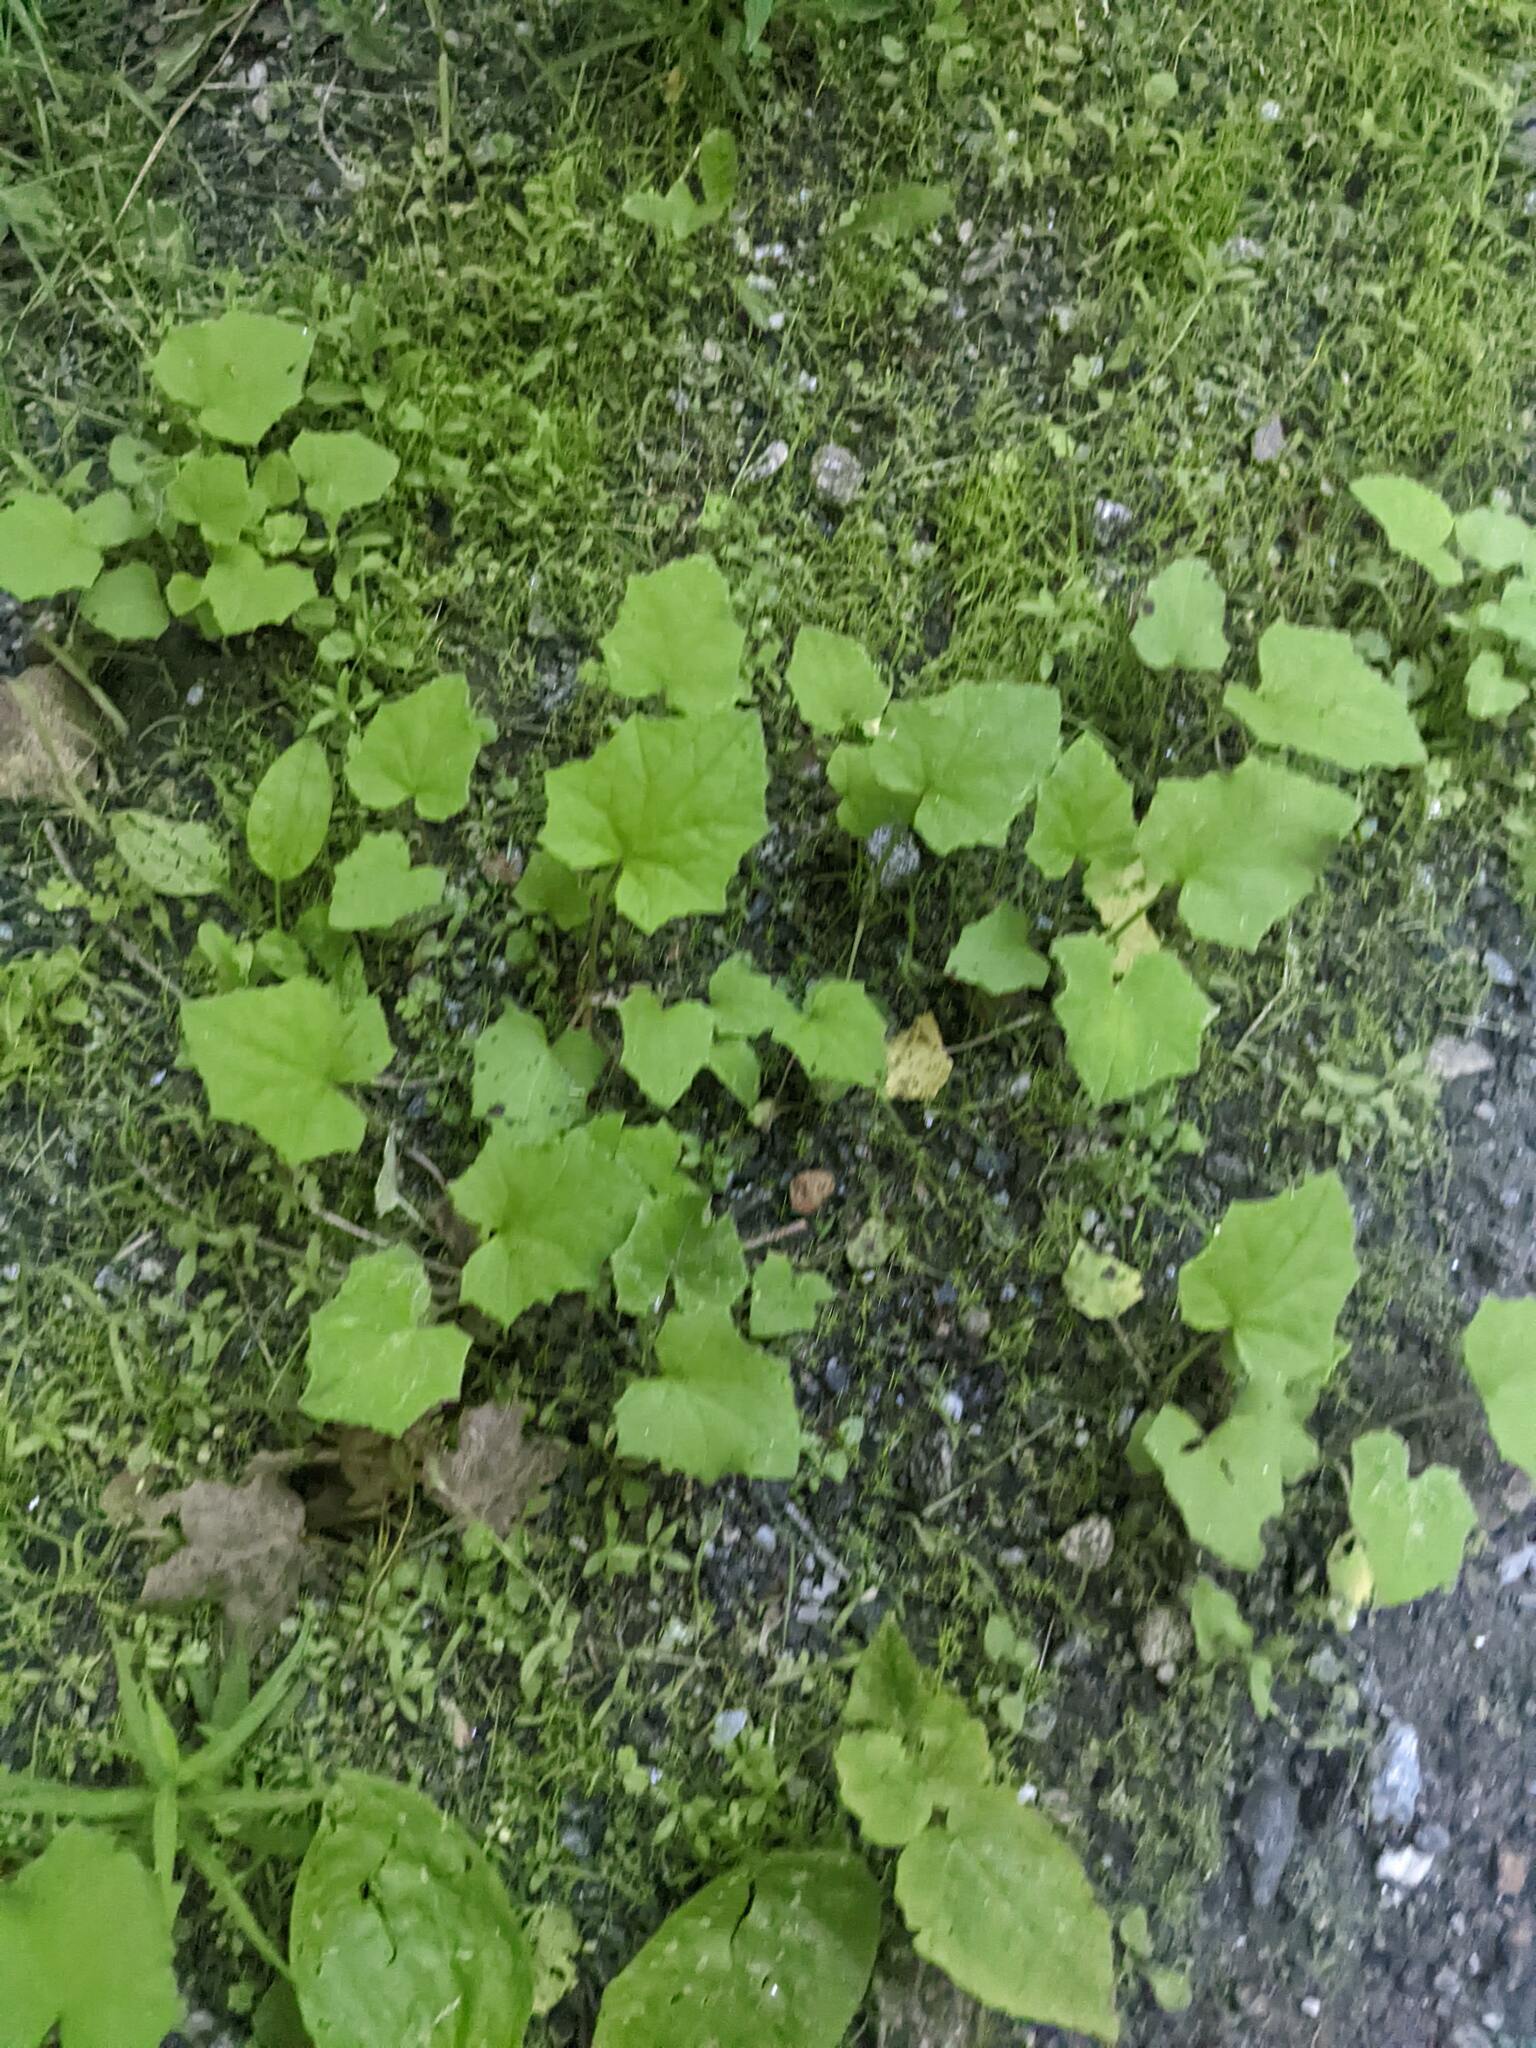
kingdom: Plantae
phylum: Tracheophyta
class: Magnoliopsida
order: Asterales
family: Asteraceae
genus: Tussilago
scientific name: Tussilago farfara
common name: Coltsfoot
